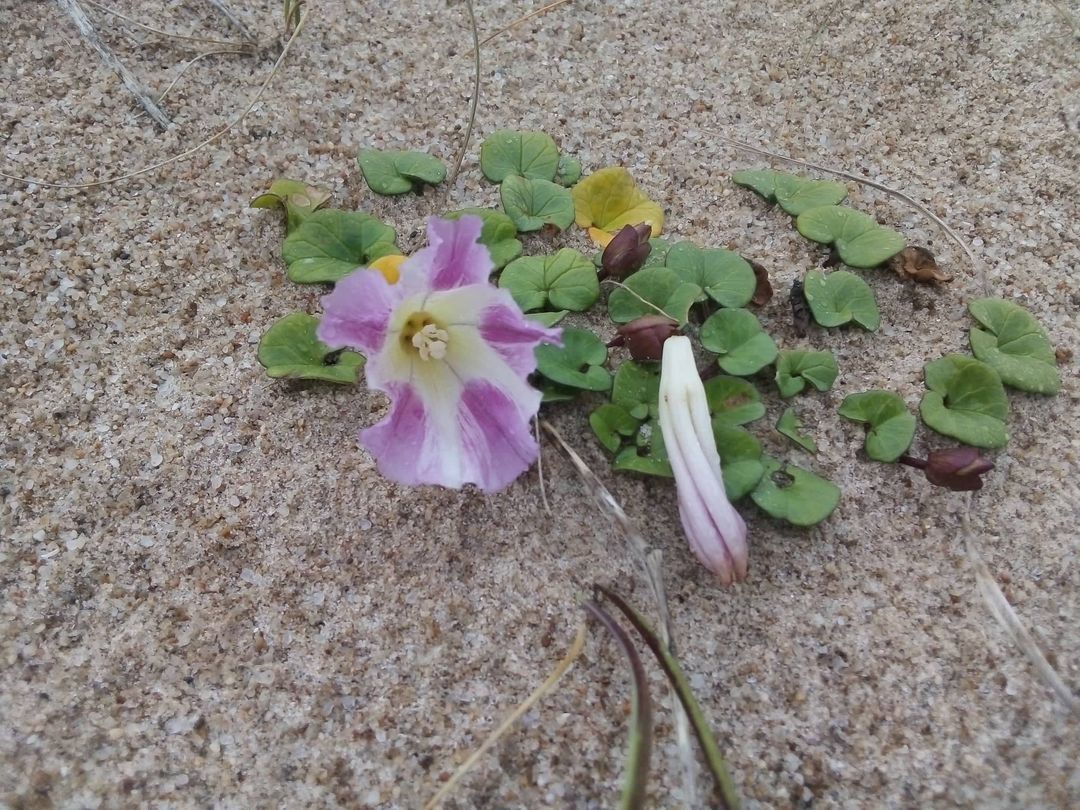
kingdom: Plantae
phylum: Tracheophyta
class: Magnoliopsida
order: Solanales
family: Convolvulaceae
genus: Calystegia
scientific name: Calystegia soldanella
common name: Sea bindweed
